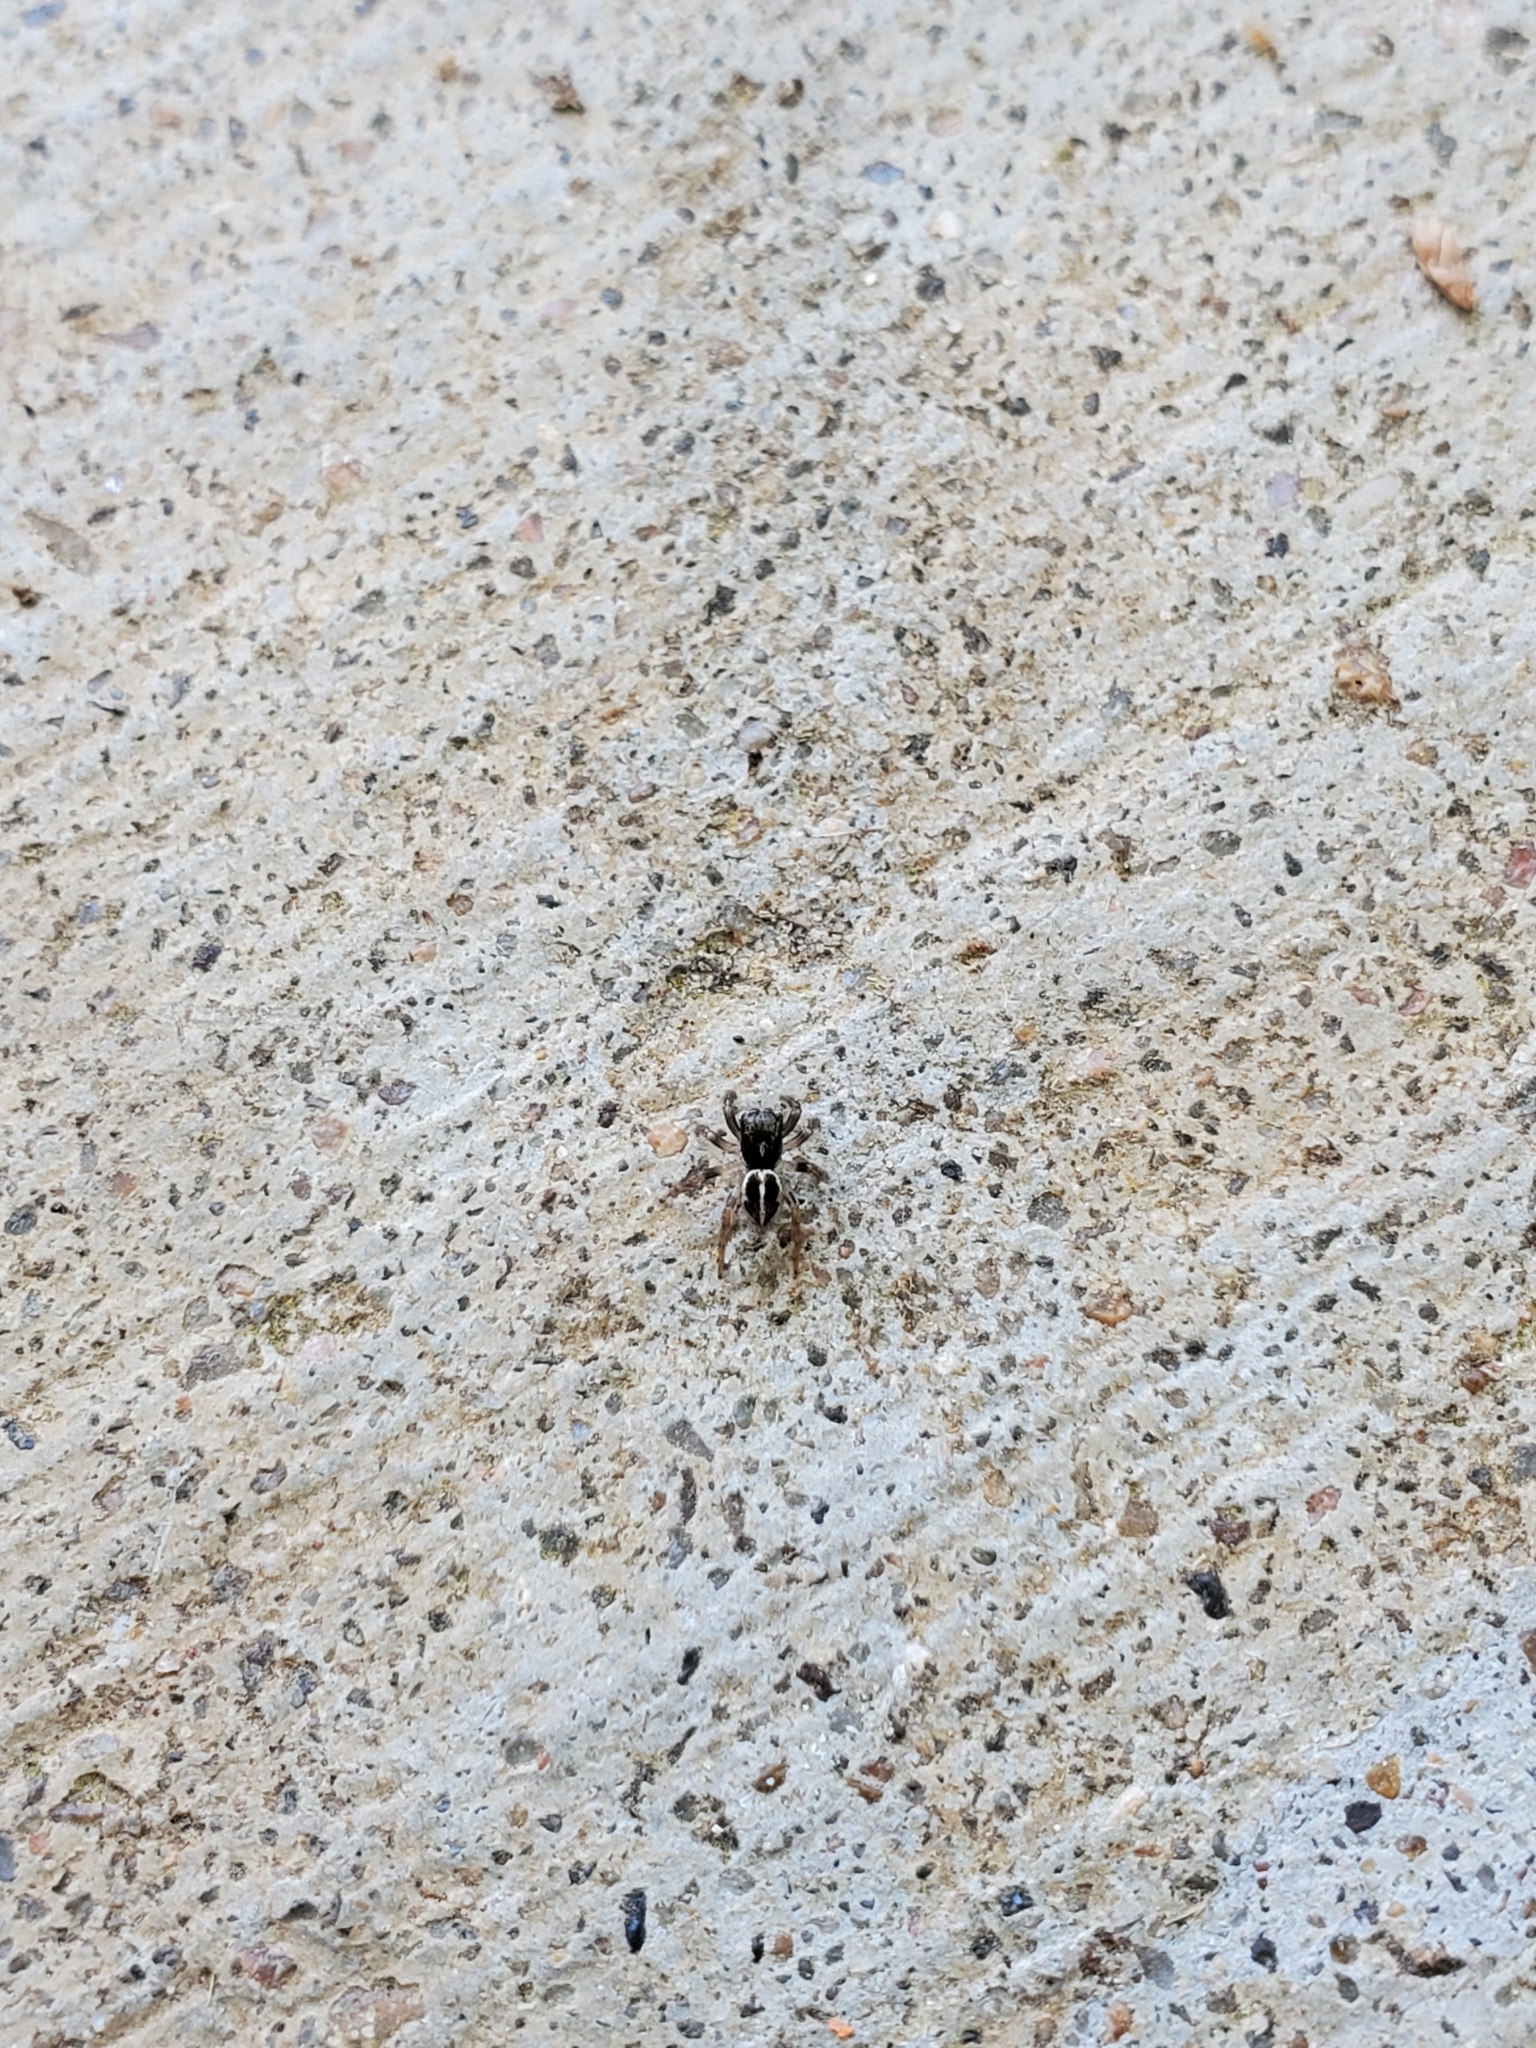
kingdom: Animalia
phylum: Arthropoda
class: Arachnida
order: Araneae
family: Salticidae
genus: Anasaitis
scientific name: Anasaitis canosa
